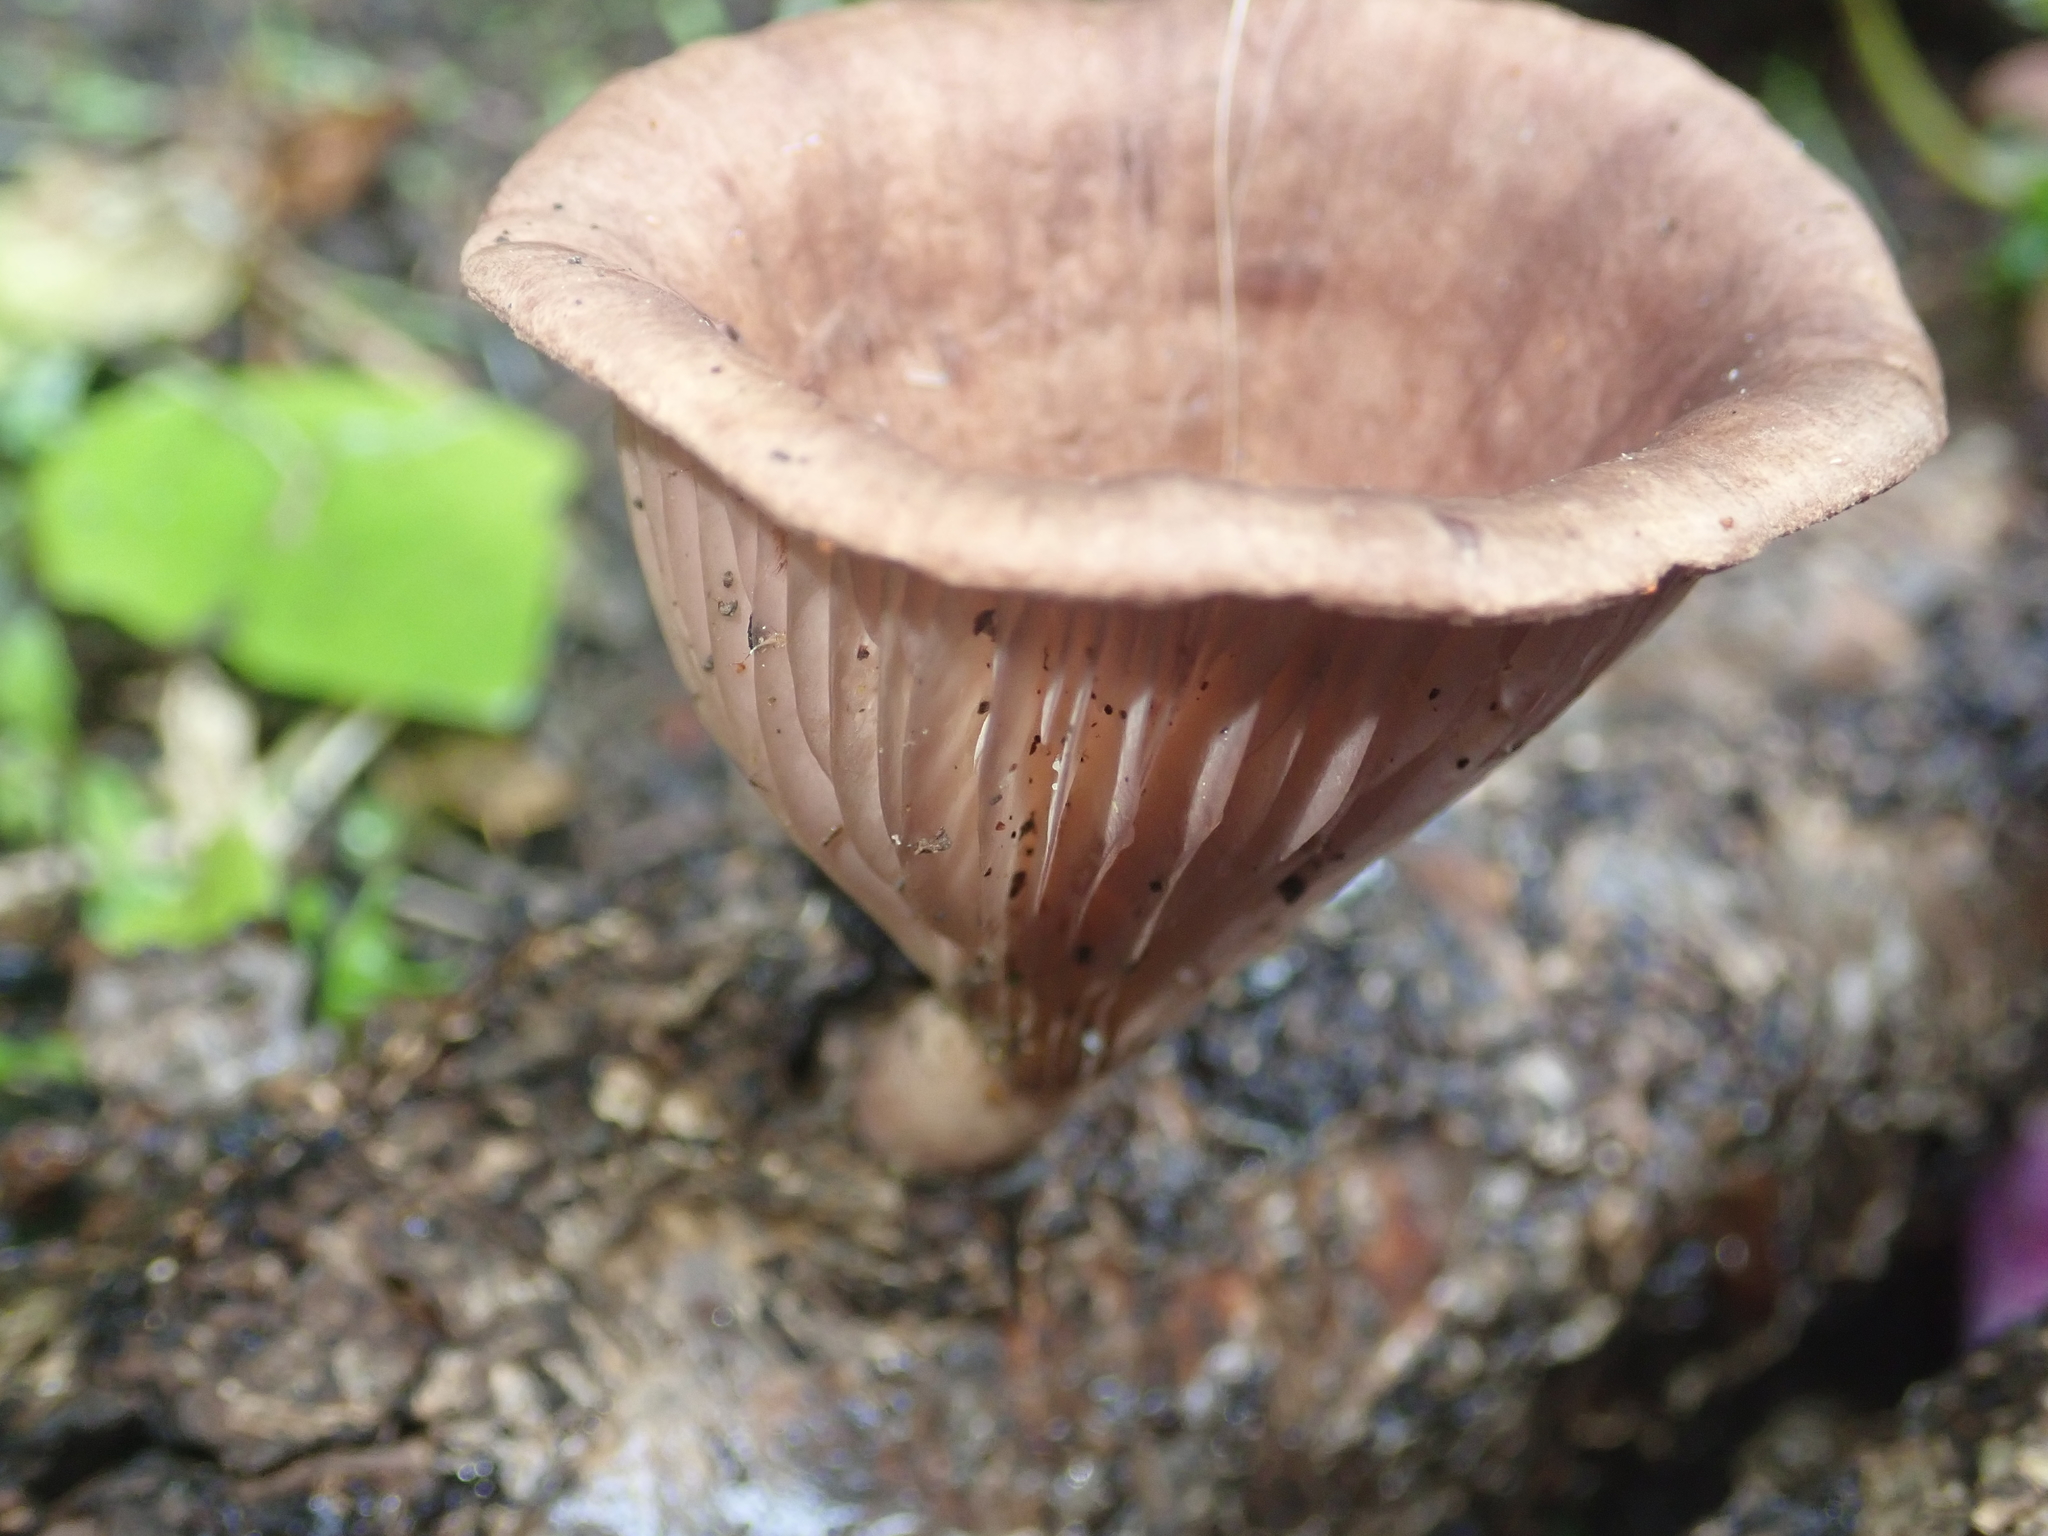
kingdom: Fungi
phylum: Basidiomycota
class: Agaricomycetes
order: Polyporales
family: Panaceae
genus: Panus
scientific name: Panus purpuratus
